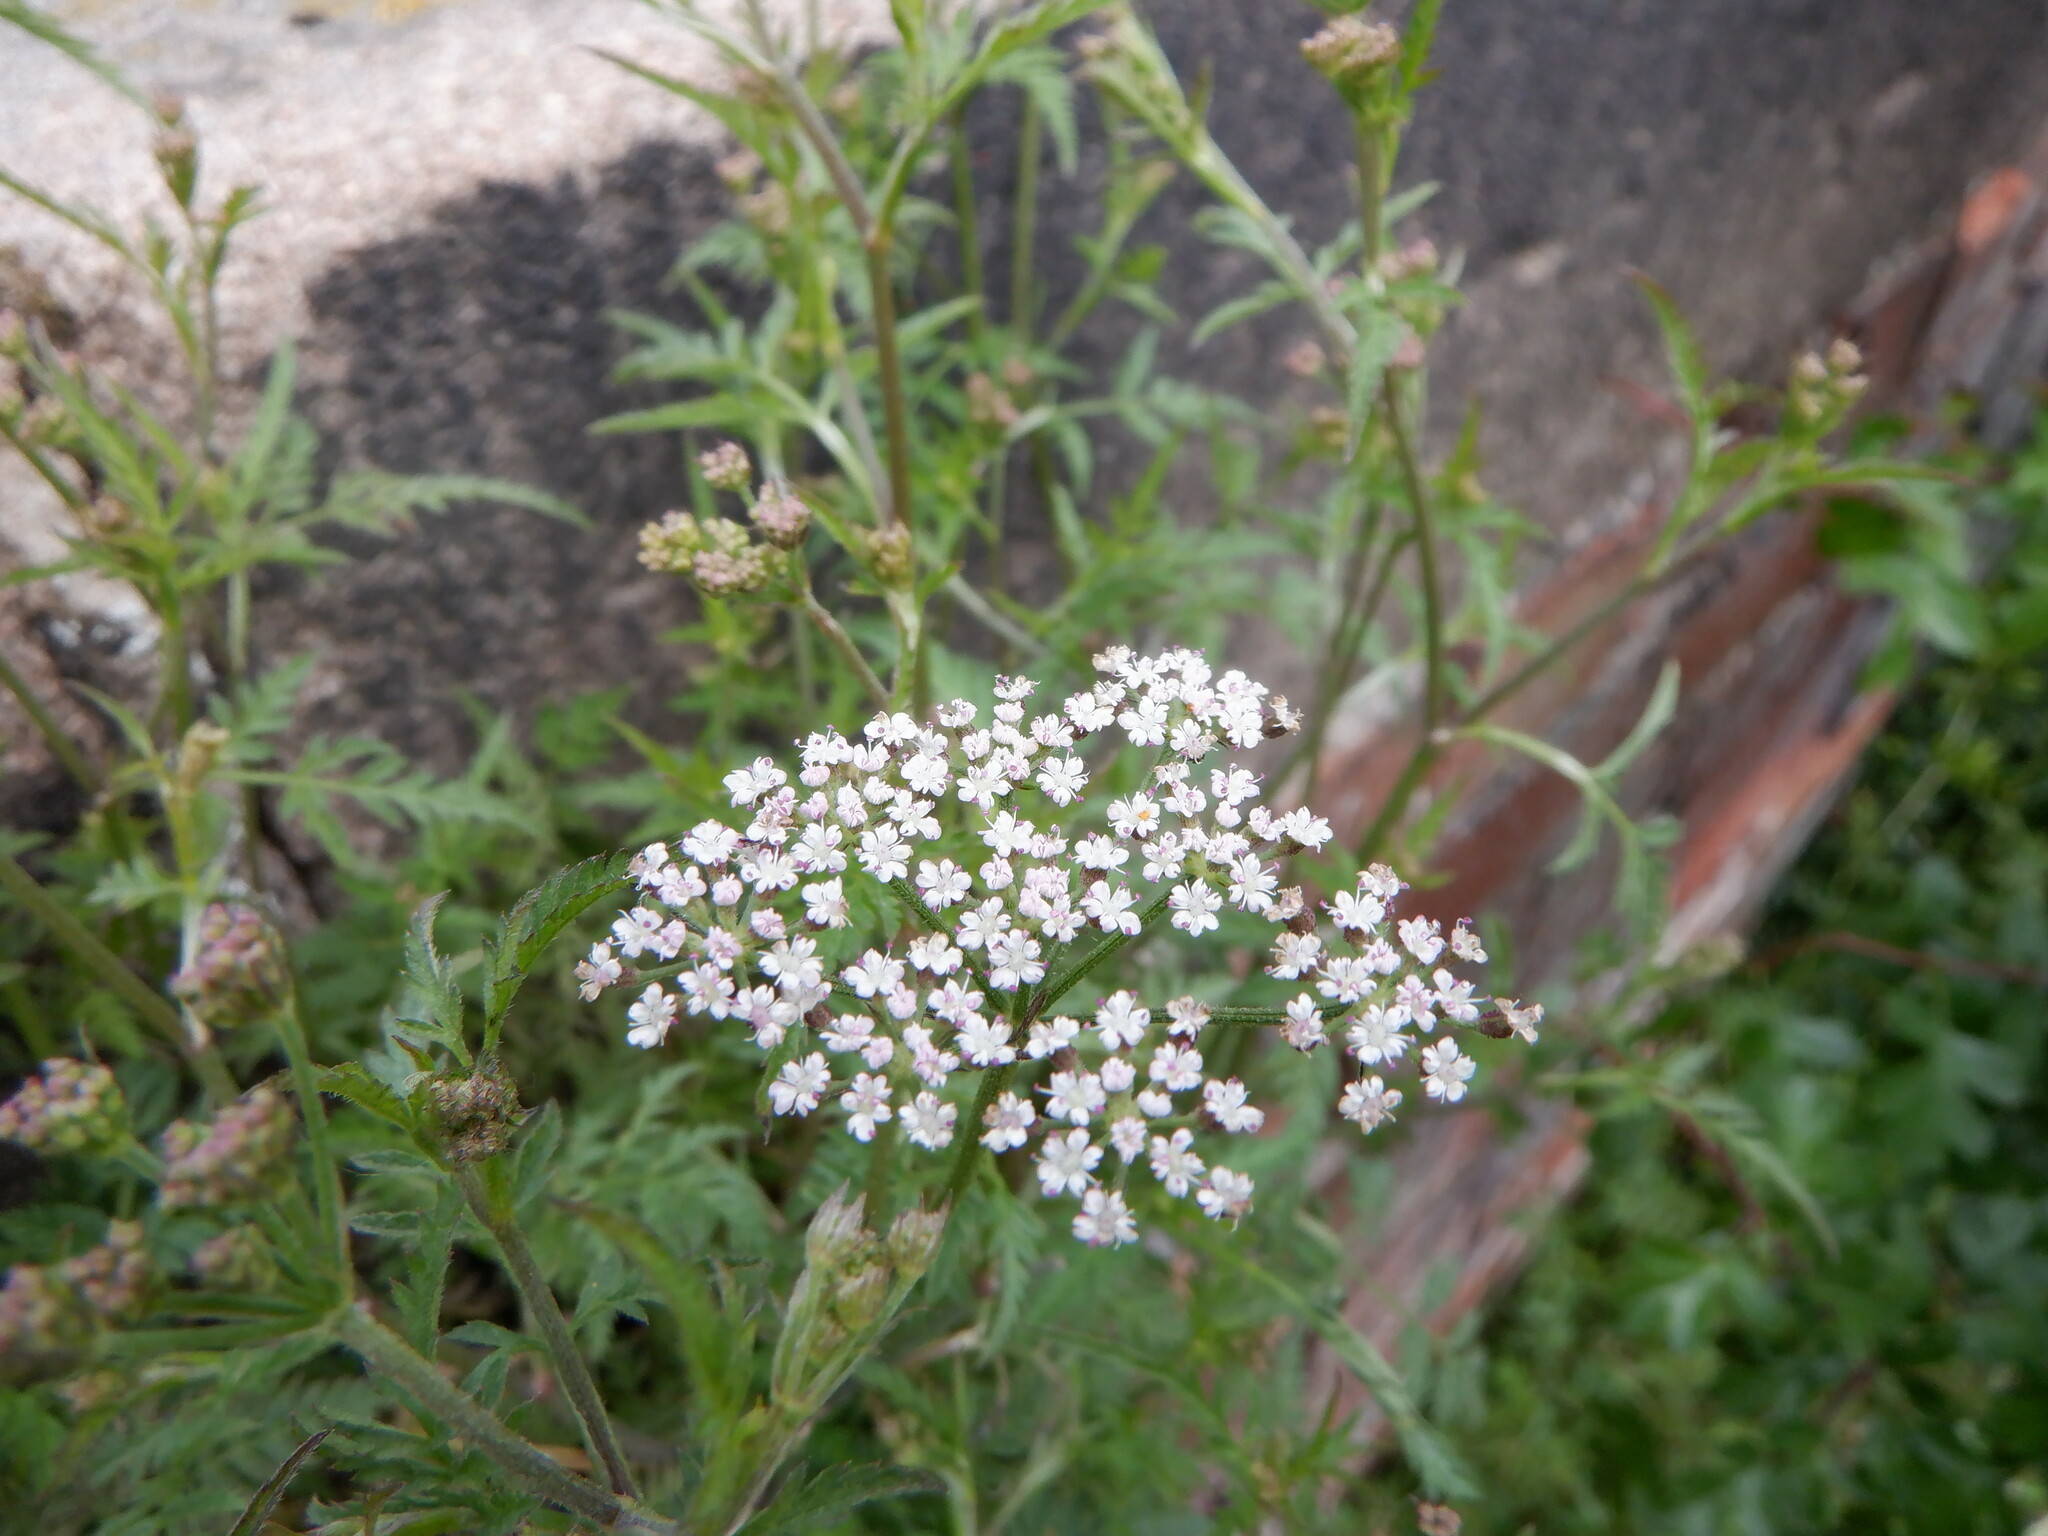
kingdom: Plantae
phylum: Tracheophyta
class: Magnoliopsida
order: Apiales
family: Apiaceae
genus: Anthriscus
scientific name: Anthriscus sylvestris
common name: Cow parsley
